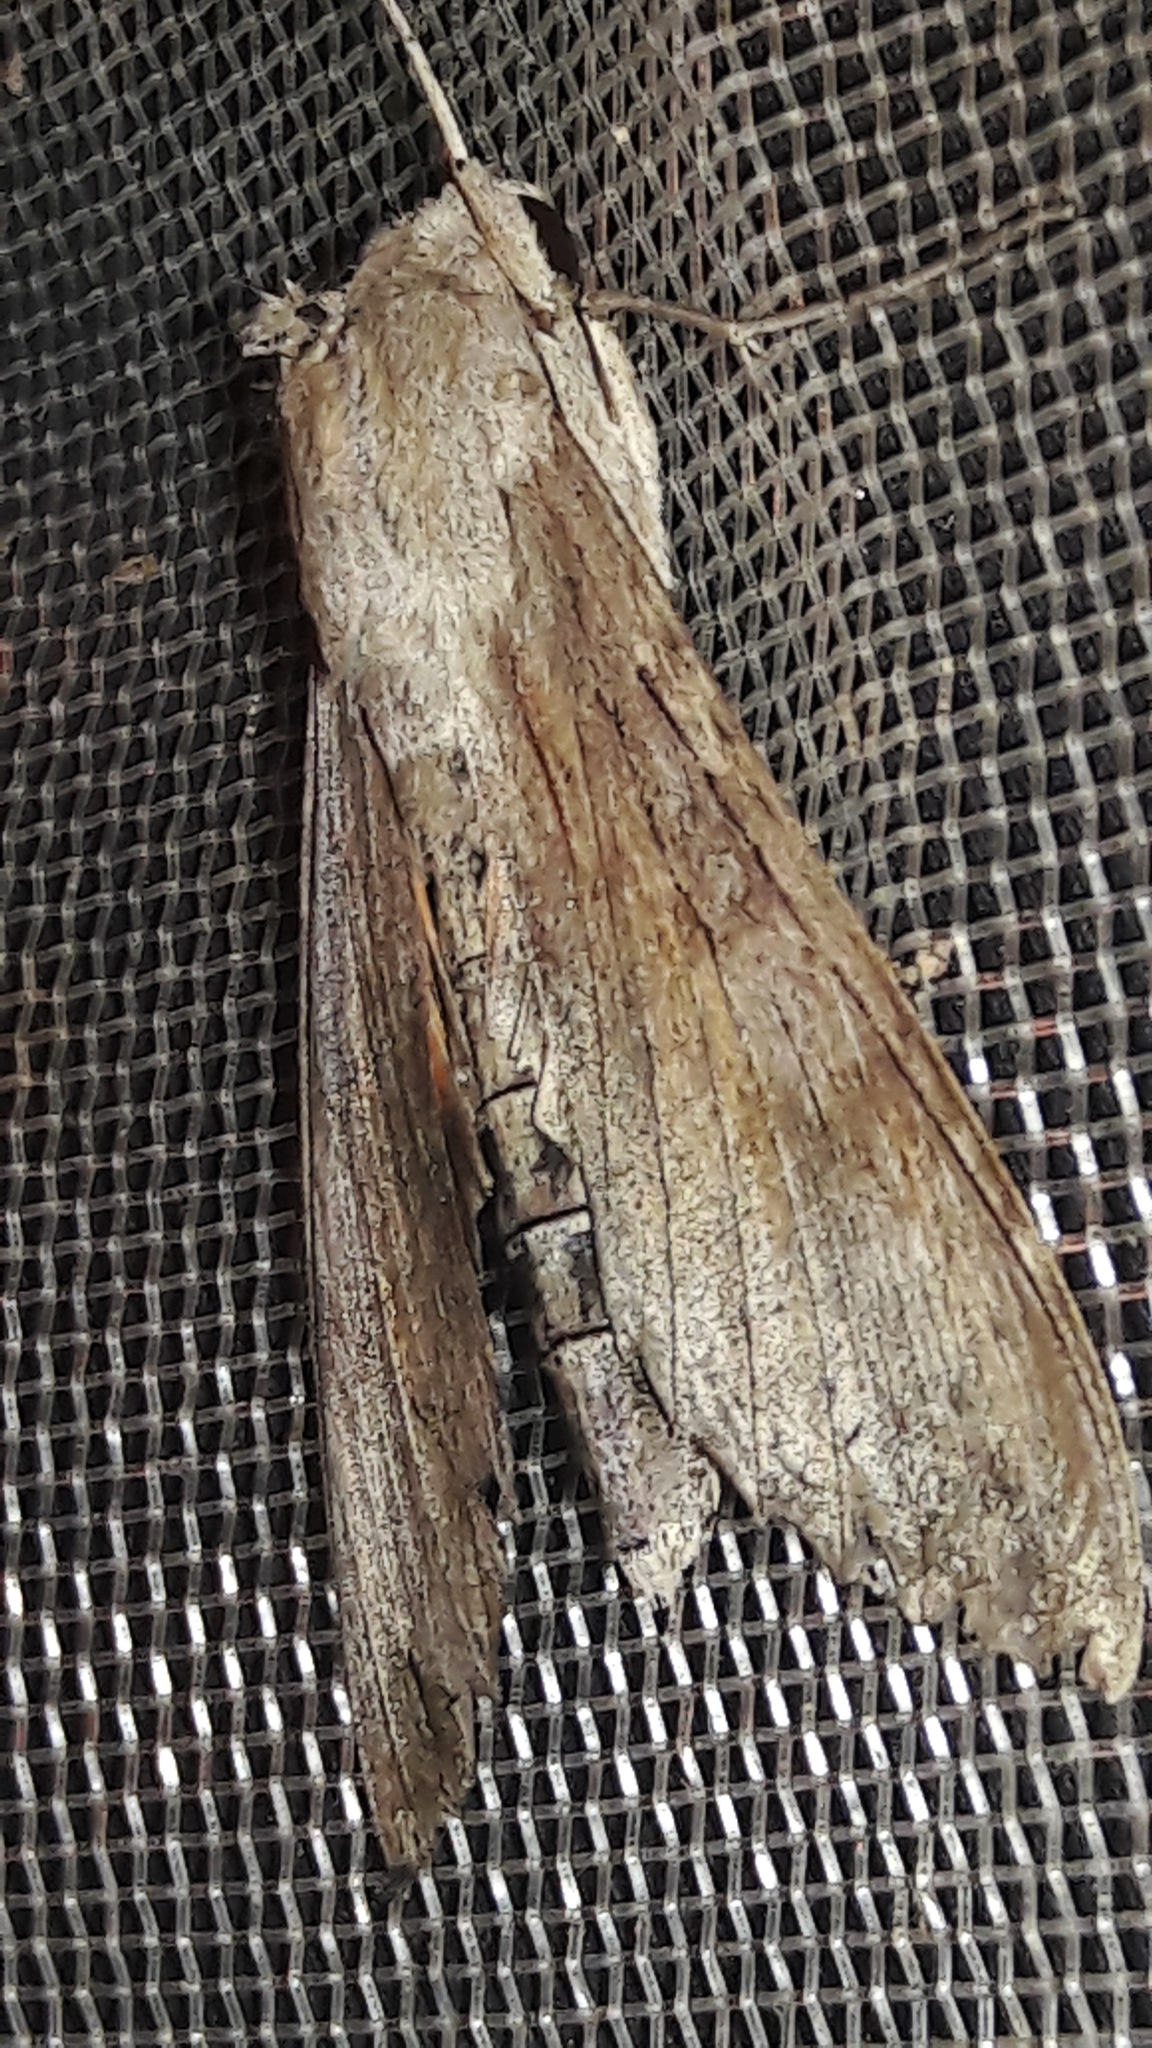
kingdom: Animalia
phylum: Arthropoda
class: Insecta
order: Lepidoptera
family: Sphingidae
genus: Erinnyis
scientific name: Erinnyis ello
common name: Ello sphinx
